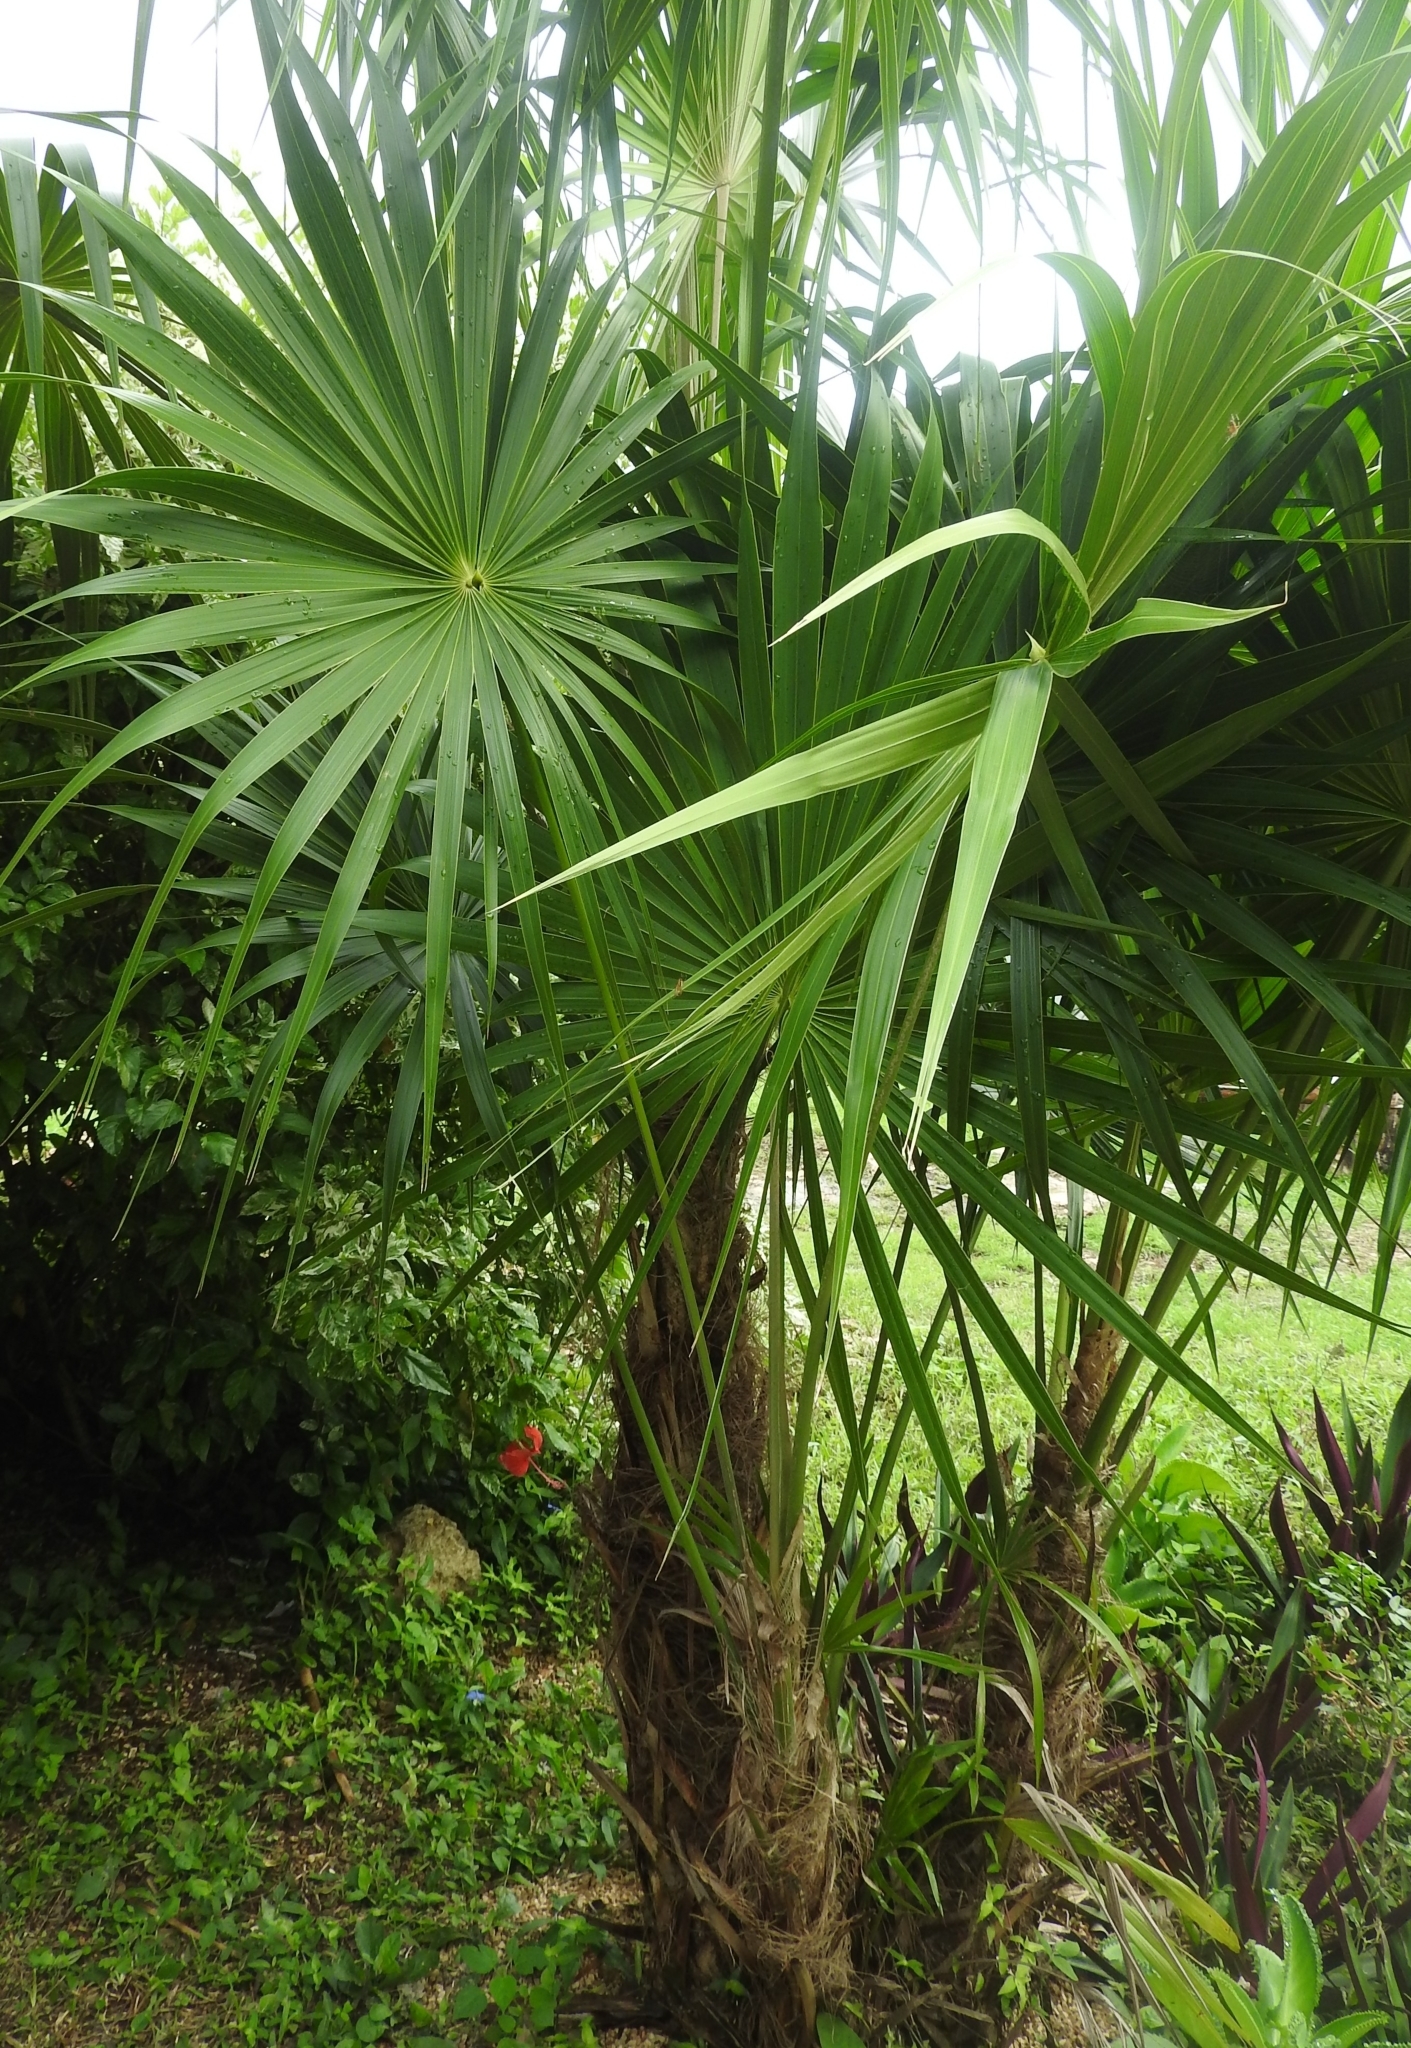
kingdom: Plantae
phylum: Tracheophyta
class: Liliopsida
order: Arecales
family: Arecaceae
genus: Thrinax
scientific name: Thrinax radiata
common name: Florida thatch
